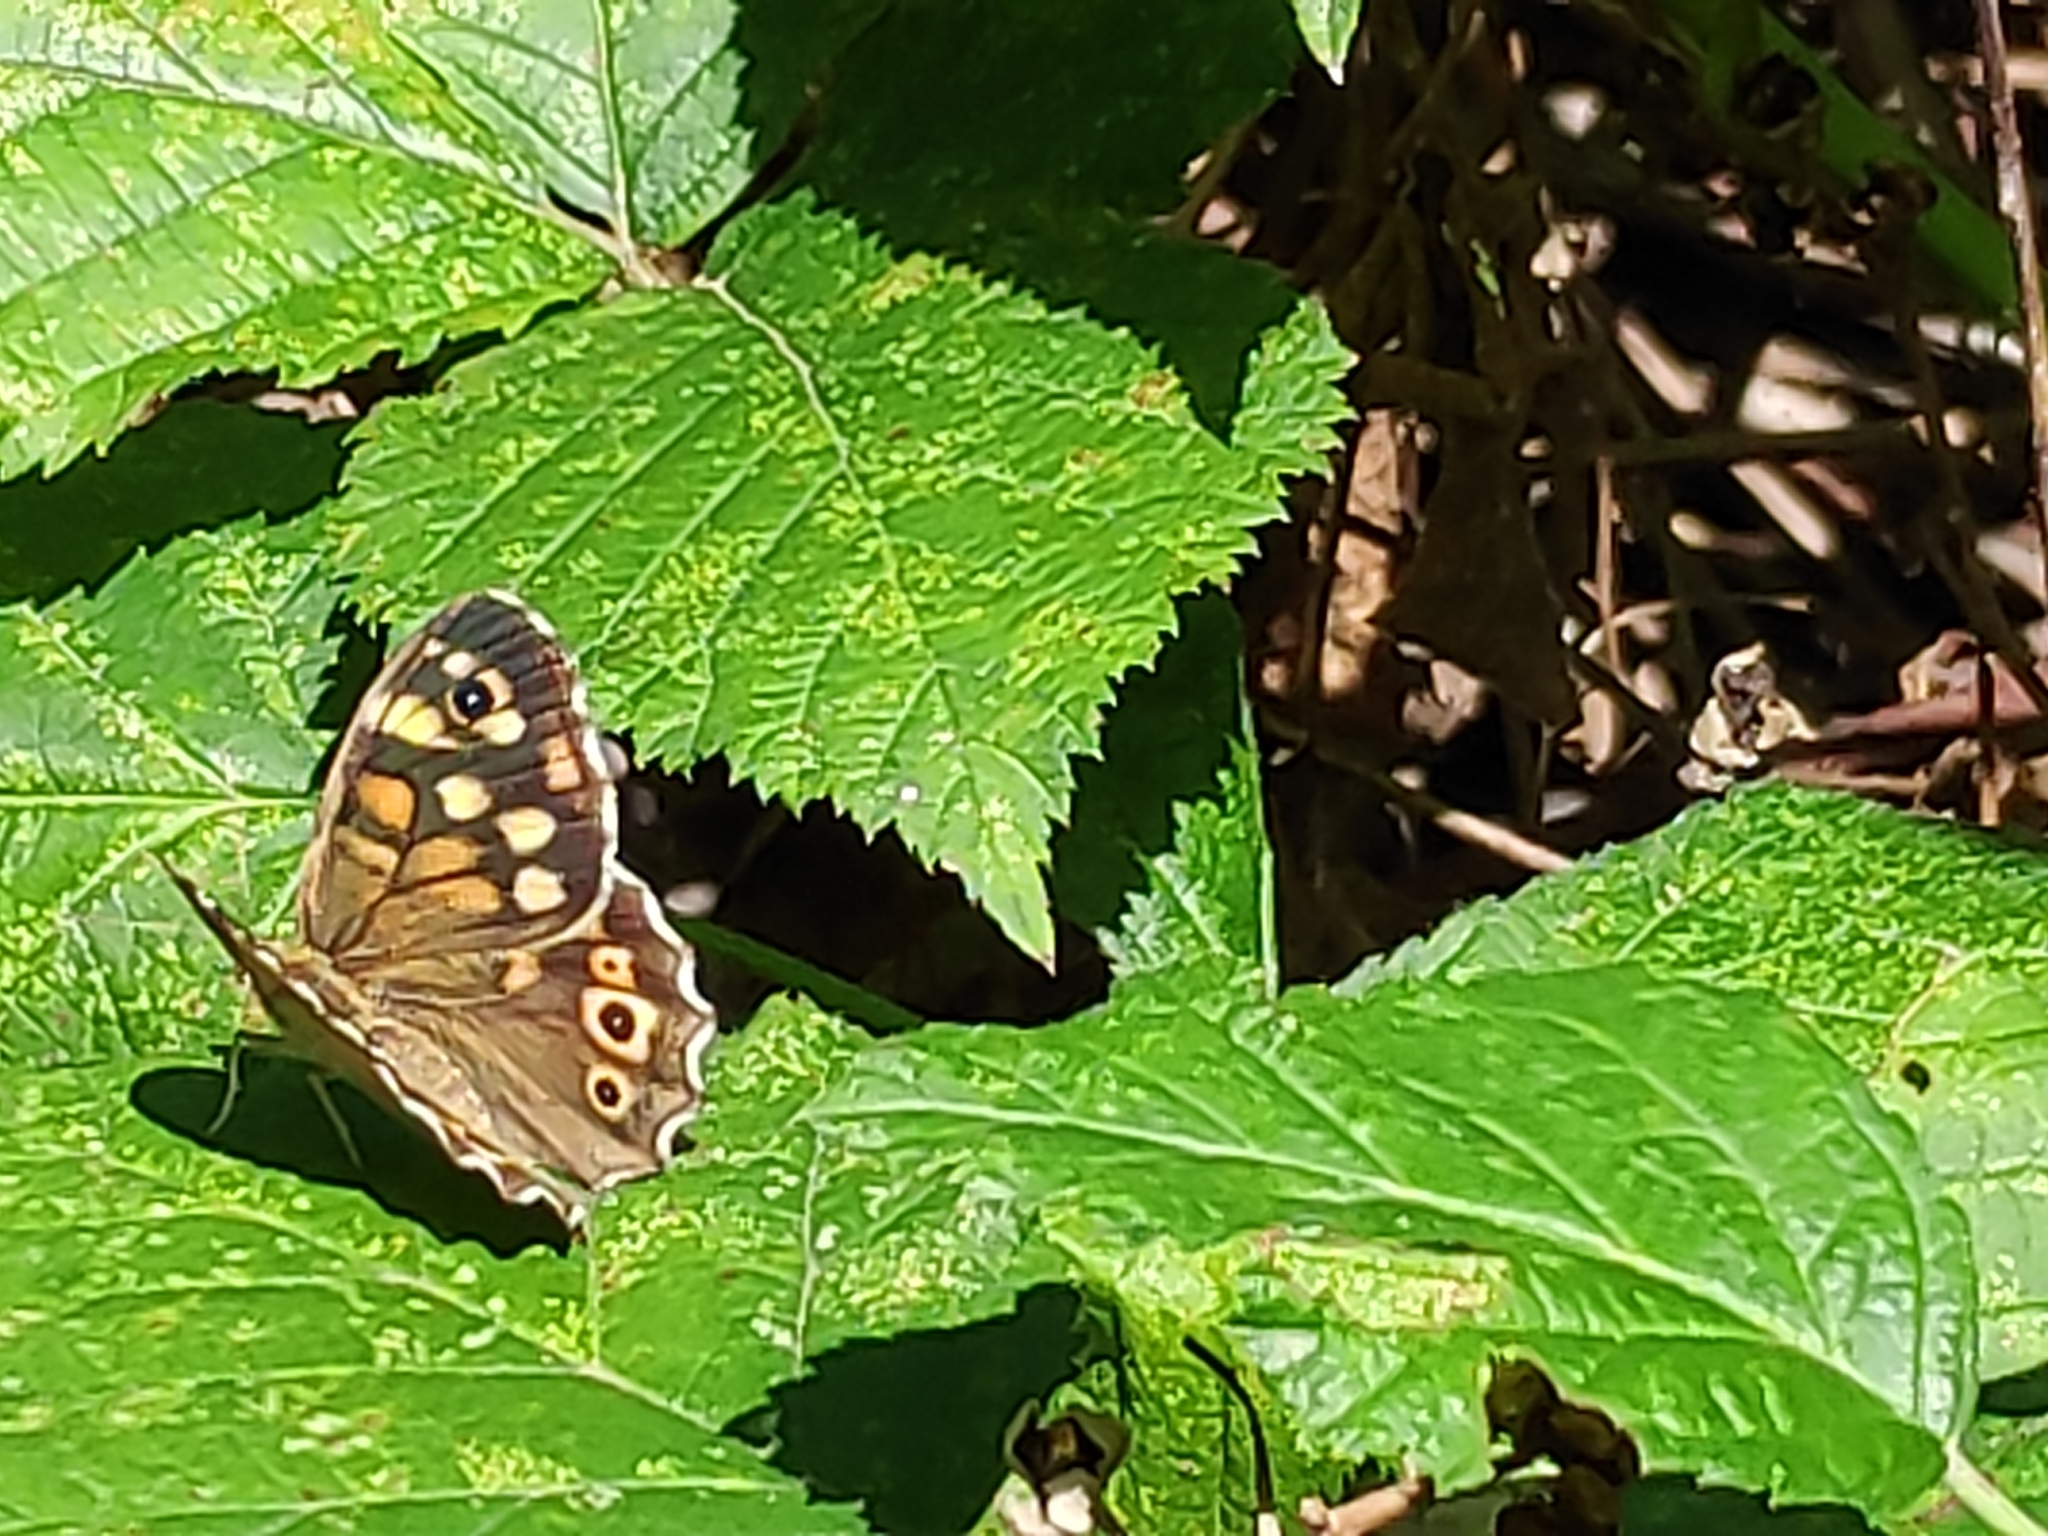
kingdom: Animalia
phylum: Arthropoda
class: Insecta
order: Lepidoptera
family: Nymphalidae
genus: Pararge
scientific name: Pararge aegeria
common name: Speckled wood
